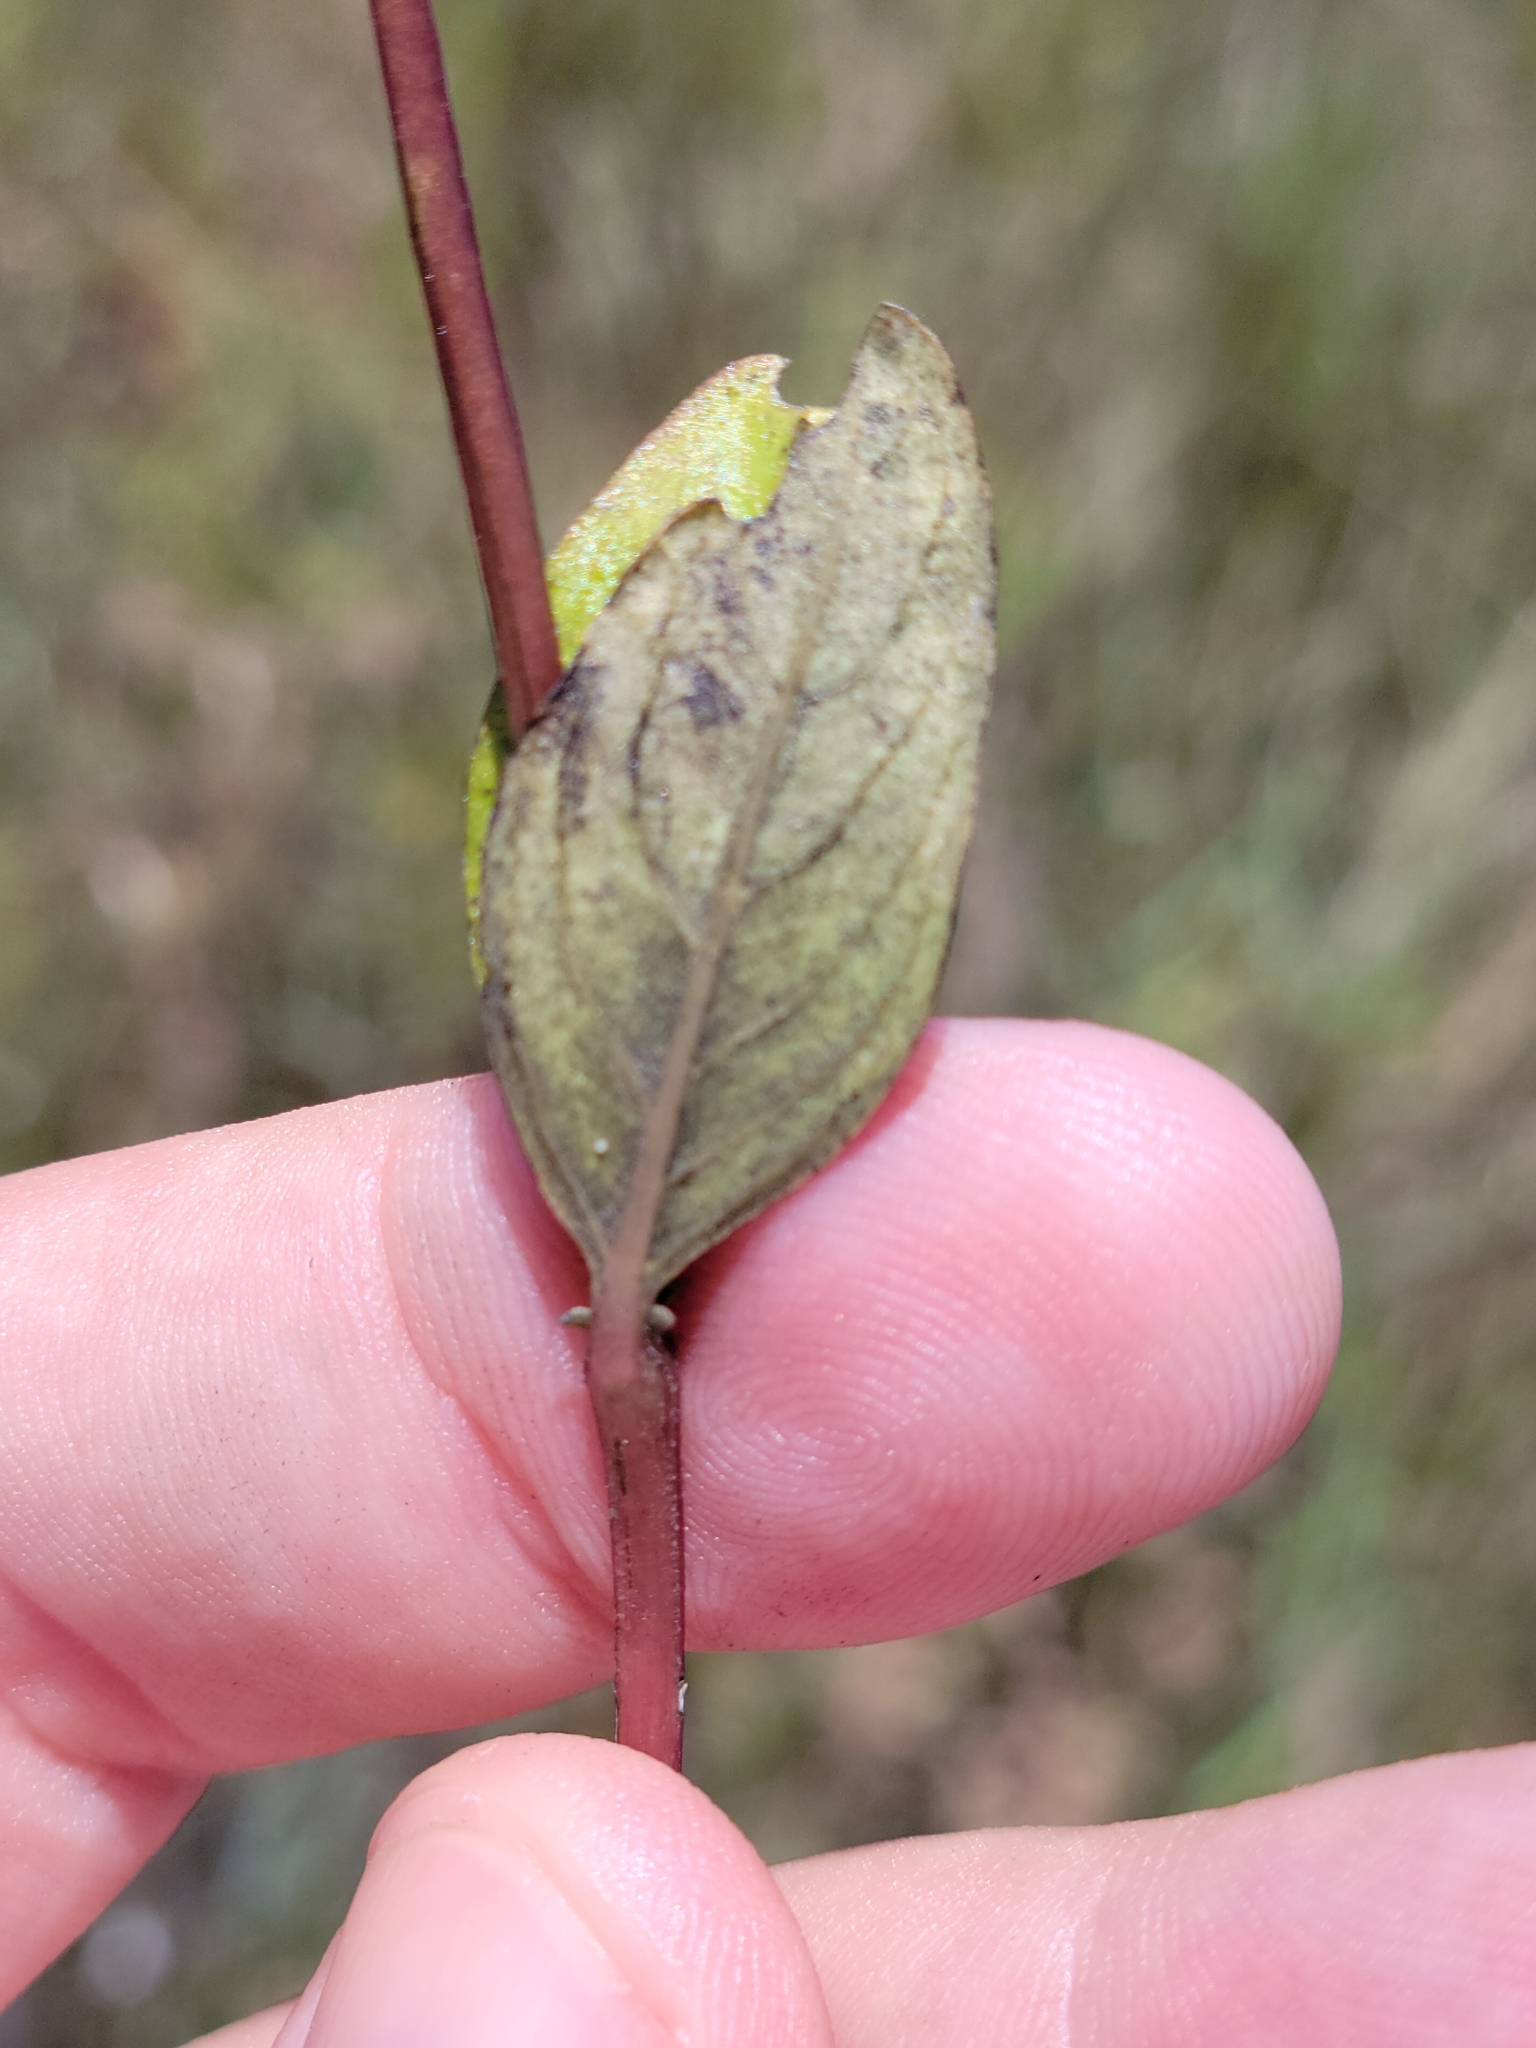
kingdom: Plantae
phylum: Tracheophyta
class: Magnoliopsida
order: Gentianales
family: Loganiaceae
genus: Mitreola
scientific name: Mitreola petiolata
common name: Lax hornpod
